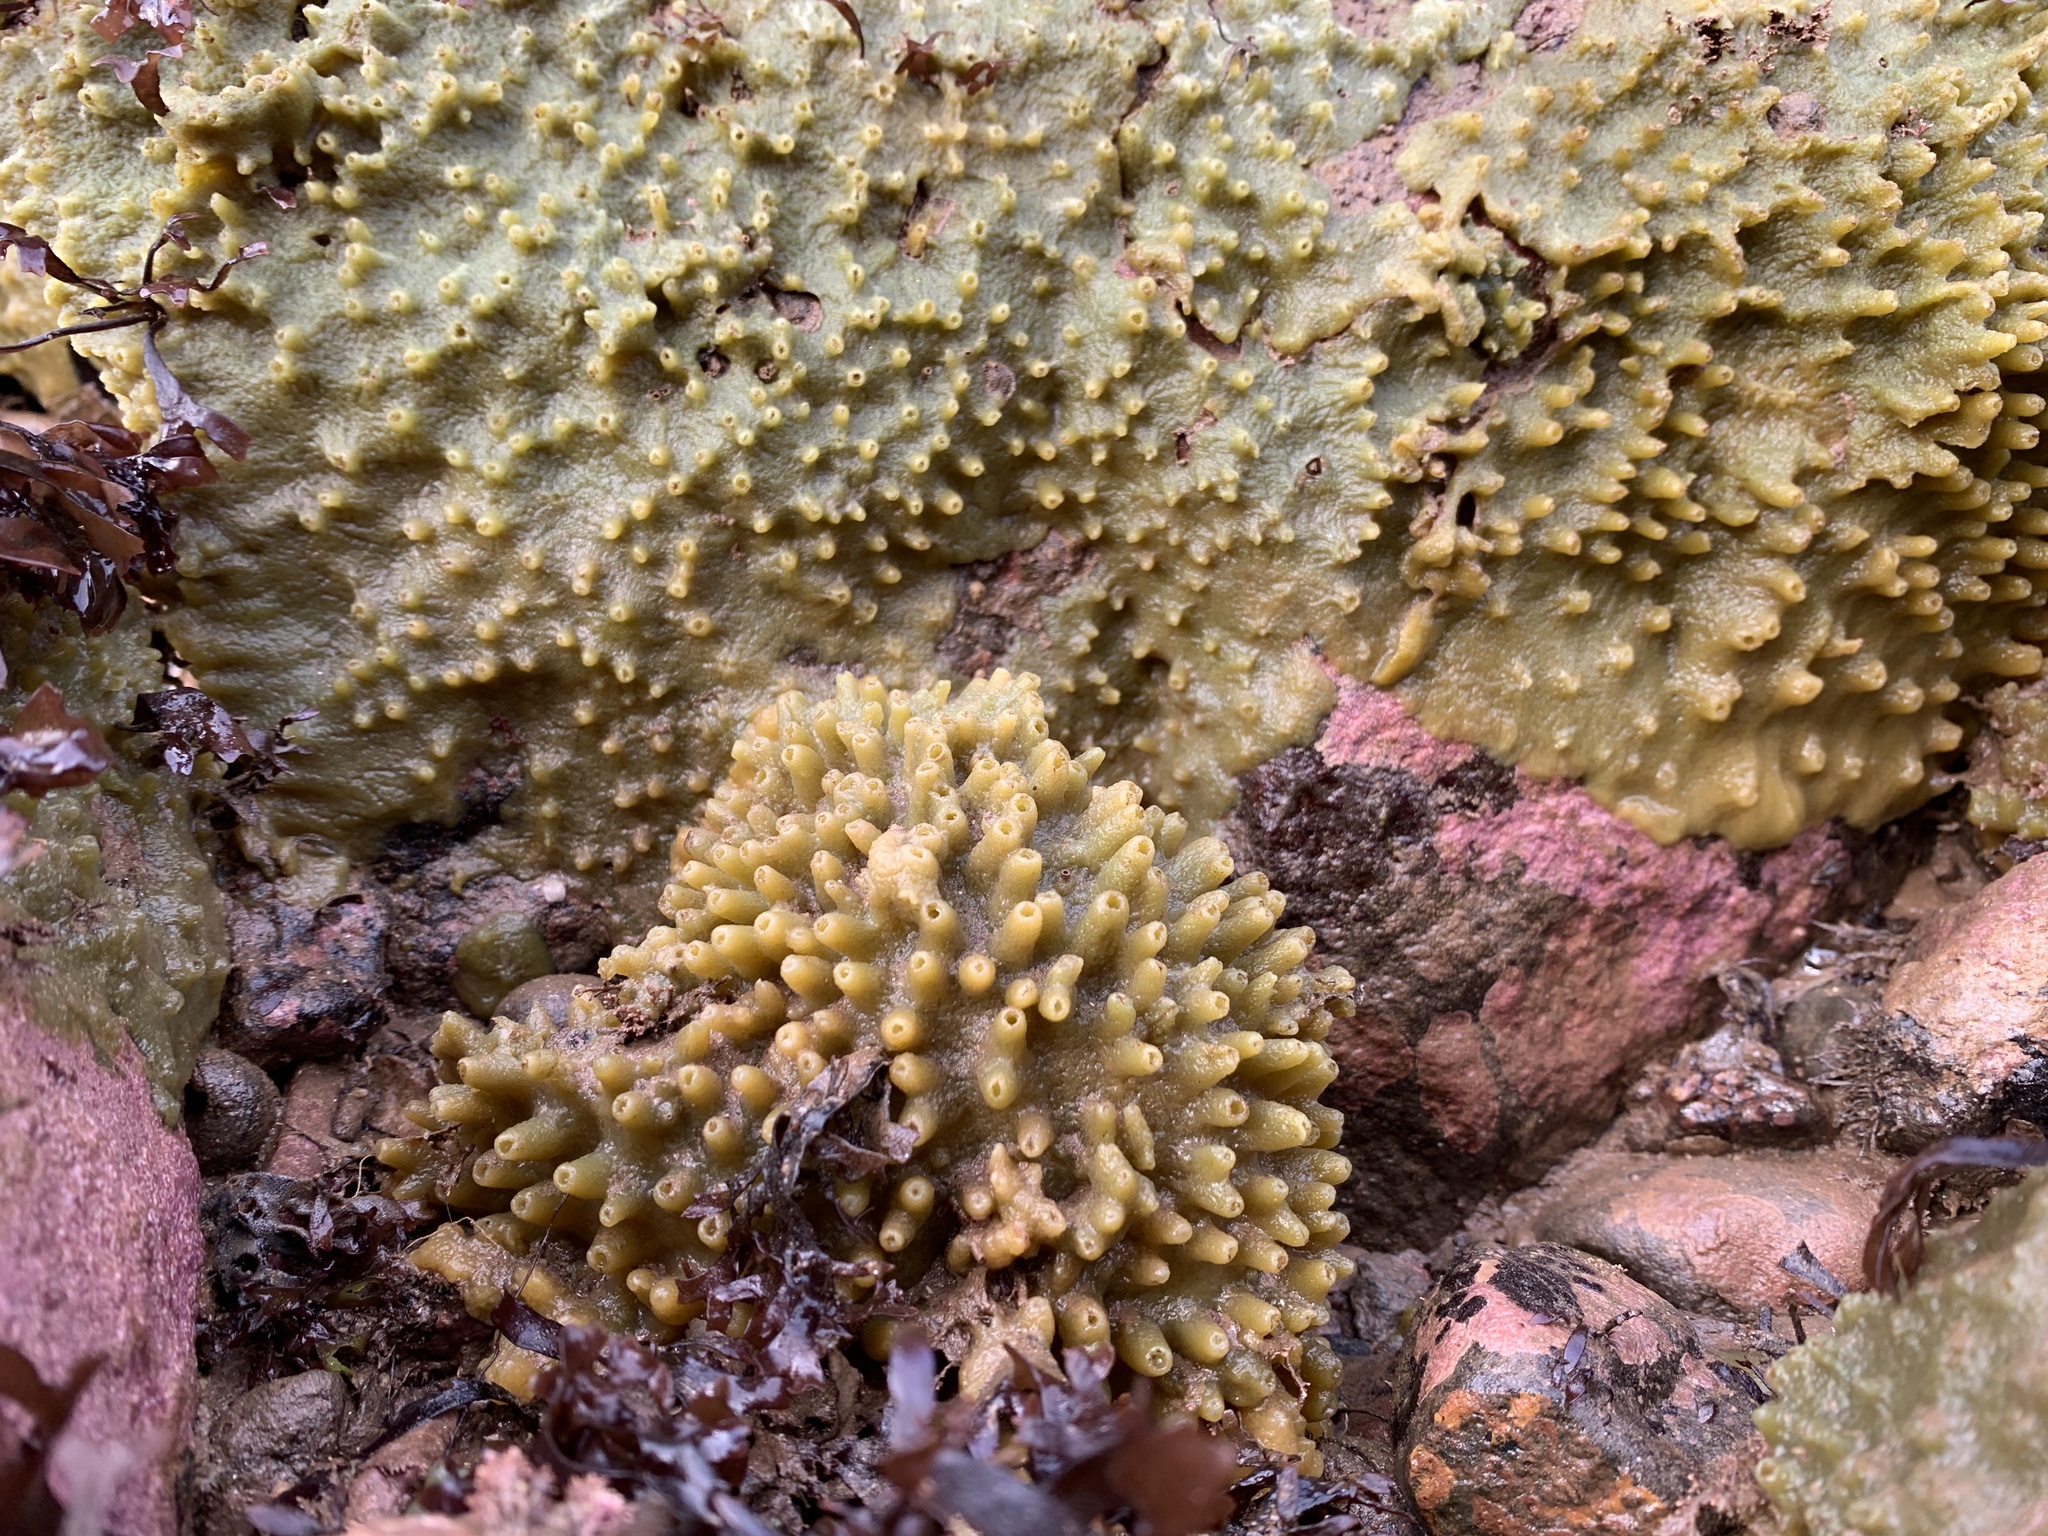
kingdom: Animalia
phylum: Porifera
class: Demospongiae
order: Suberitida
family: Halichondriidae
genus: Halichondria
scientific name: Halichondria panicea
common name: Breadcrumb sponge
